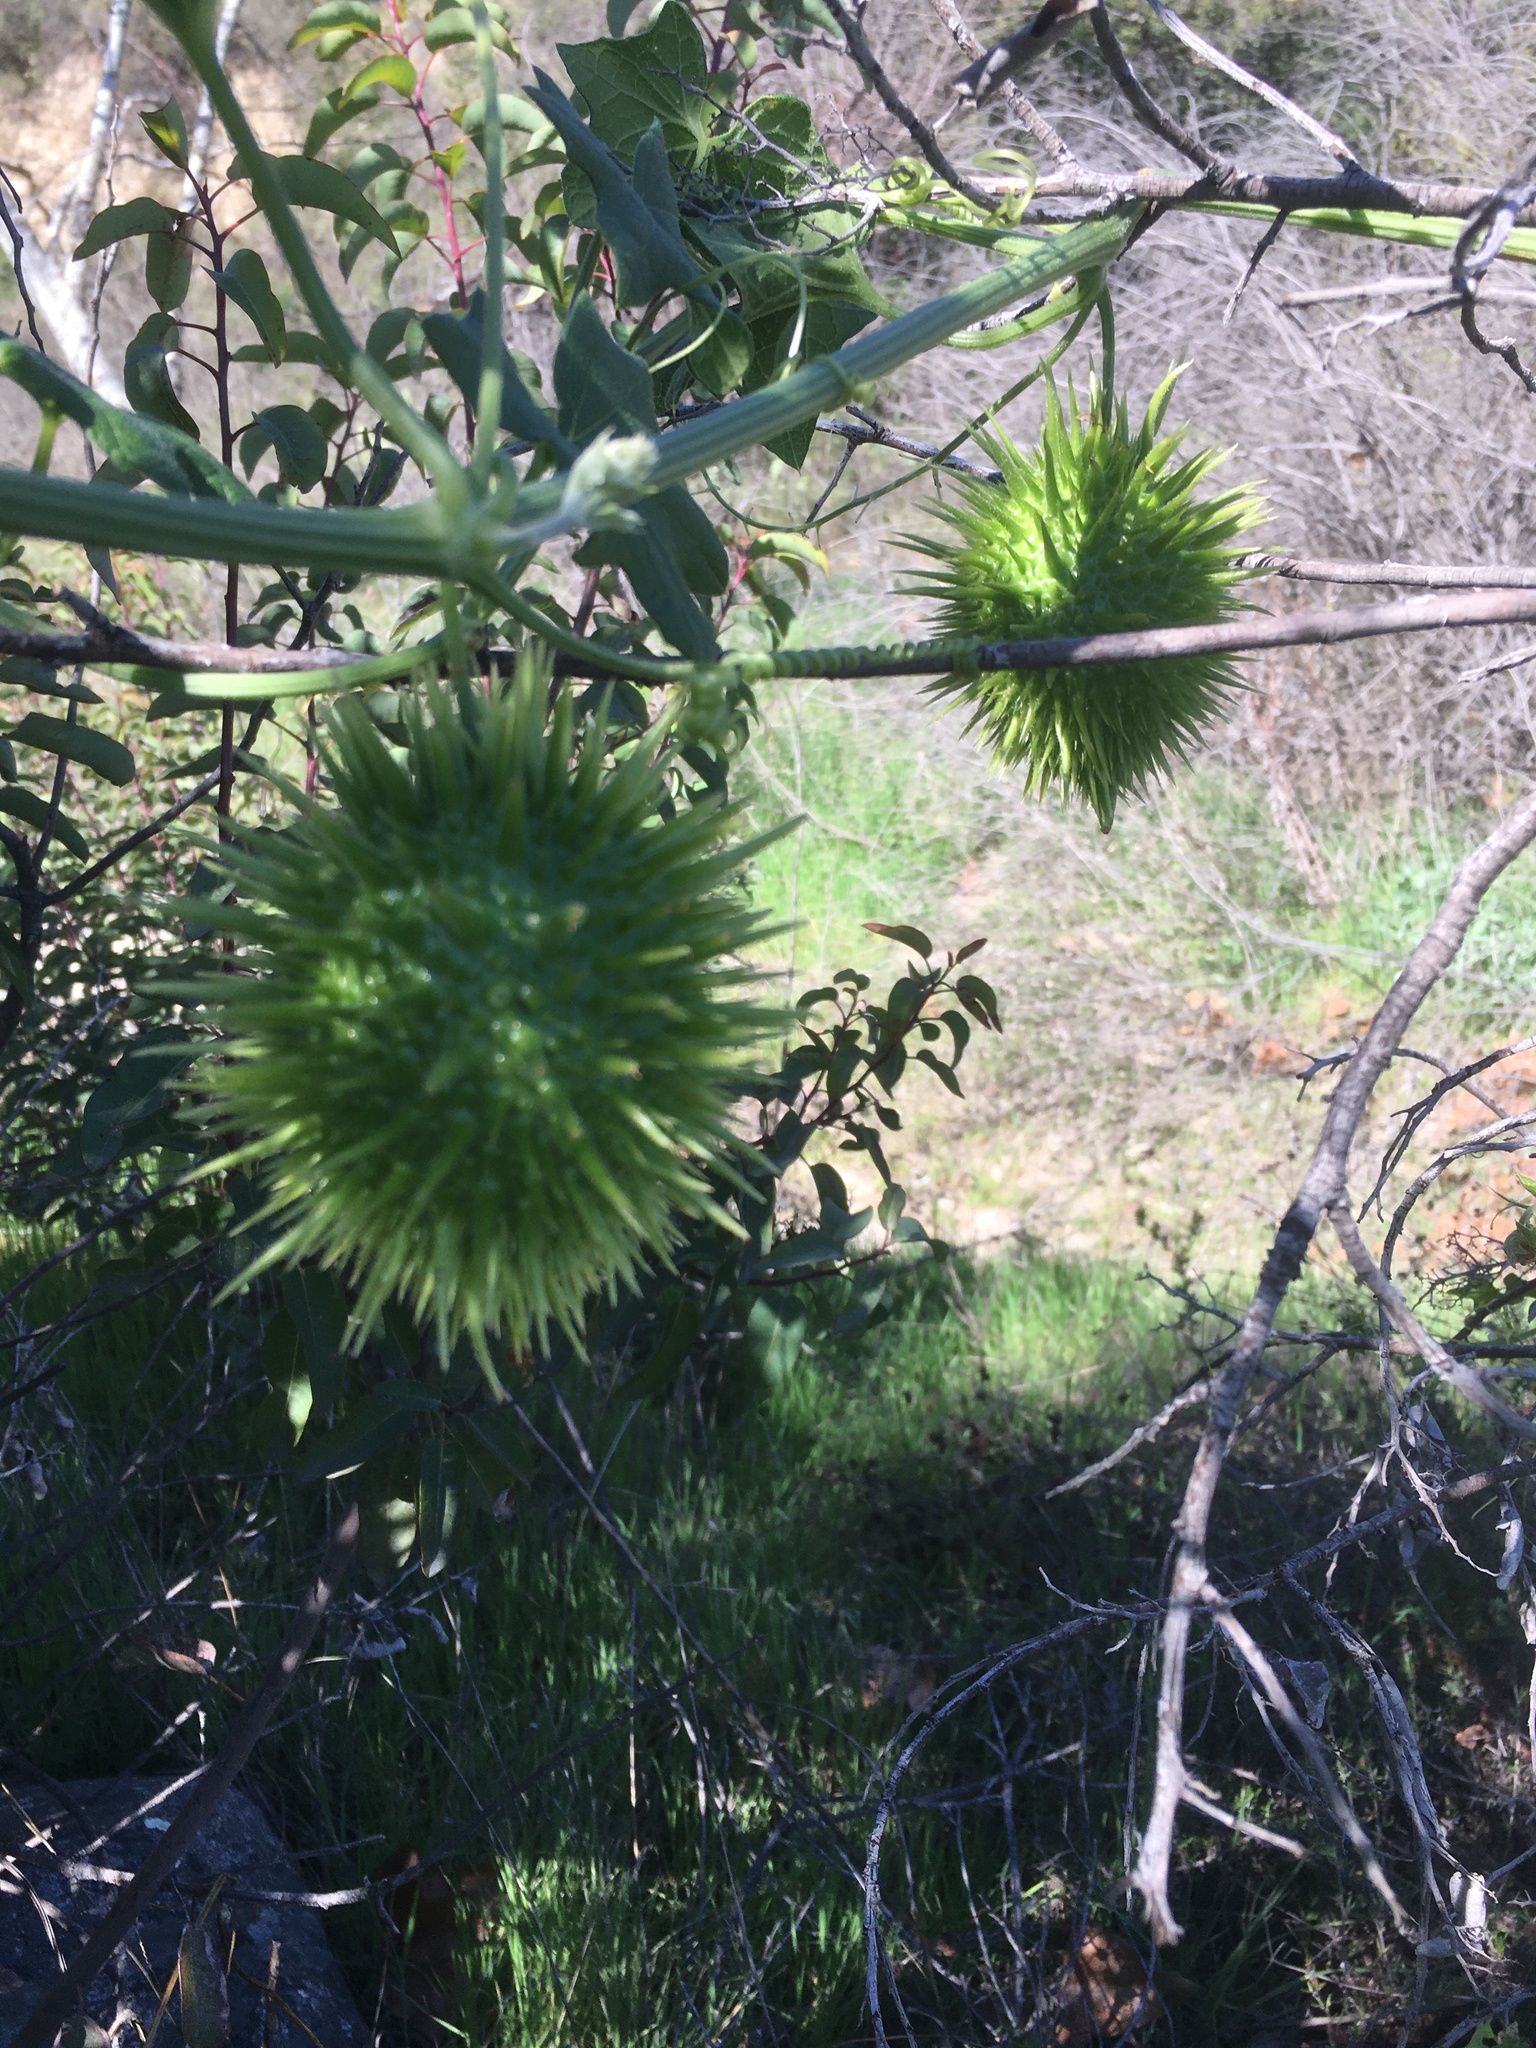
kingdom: Plantae
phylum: Tracheophyta
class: Magnoliopsida
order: Cucurbitales
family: Cucurbitaceae
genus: Marah
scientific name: Marah macrocarpa
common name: Cucamonga manroot
